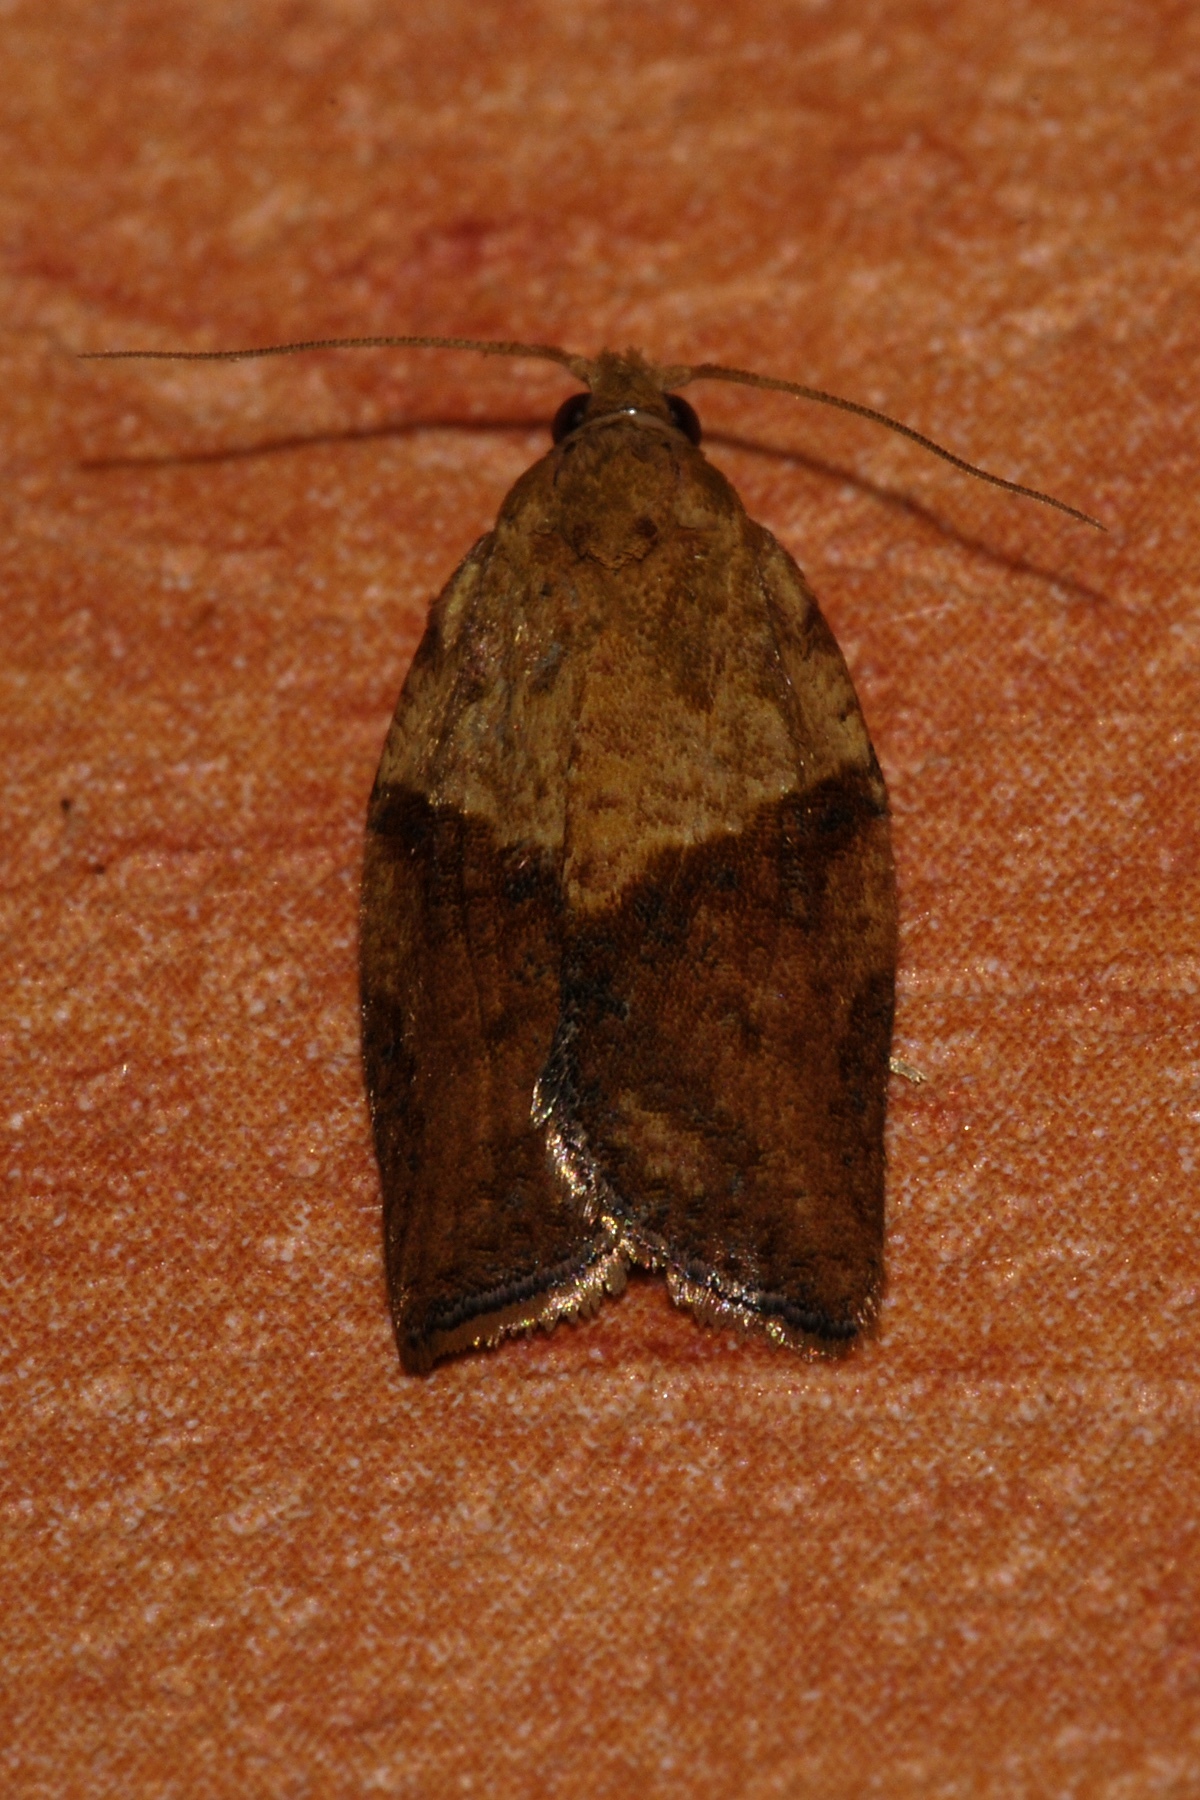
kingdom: Animalia
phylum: Arthropoda
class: Insecta
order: Lepidoptera
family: Tortricidae
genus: Epiphyas
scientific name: Epiphyas postvittana
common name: Light brown apple moth
